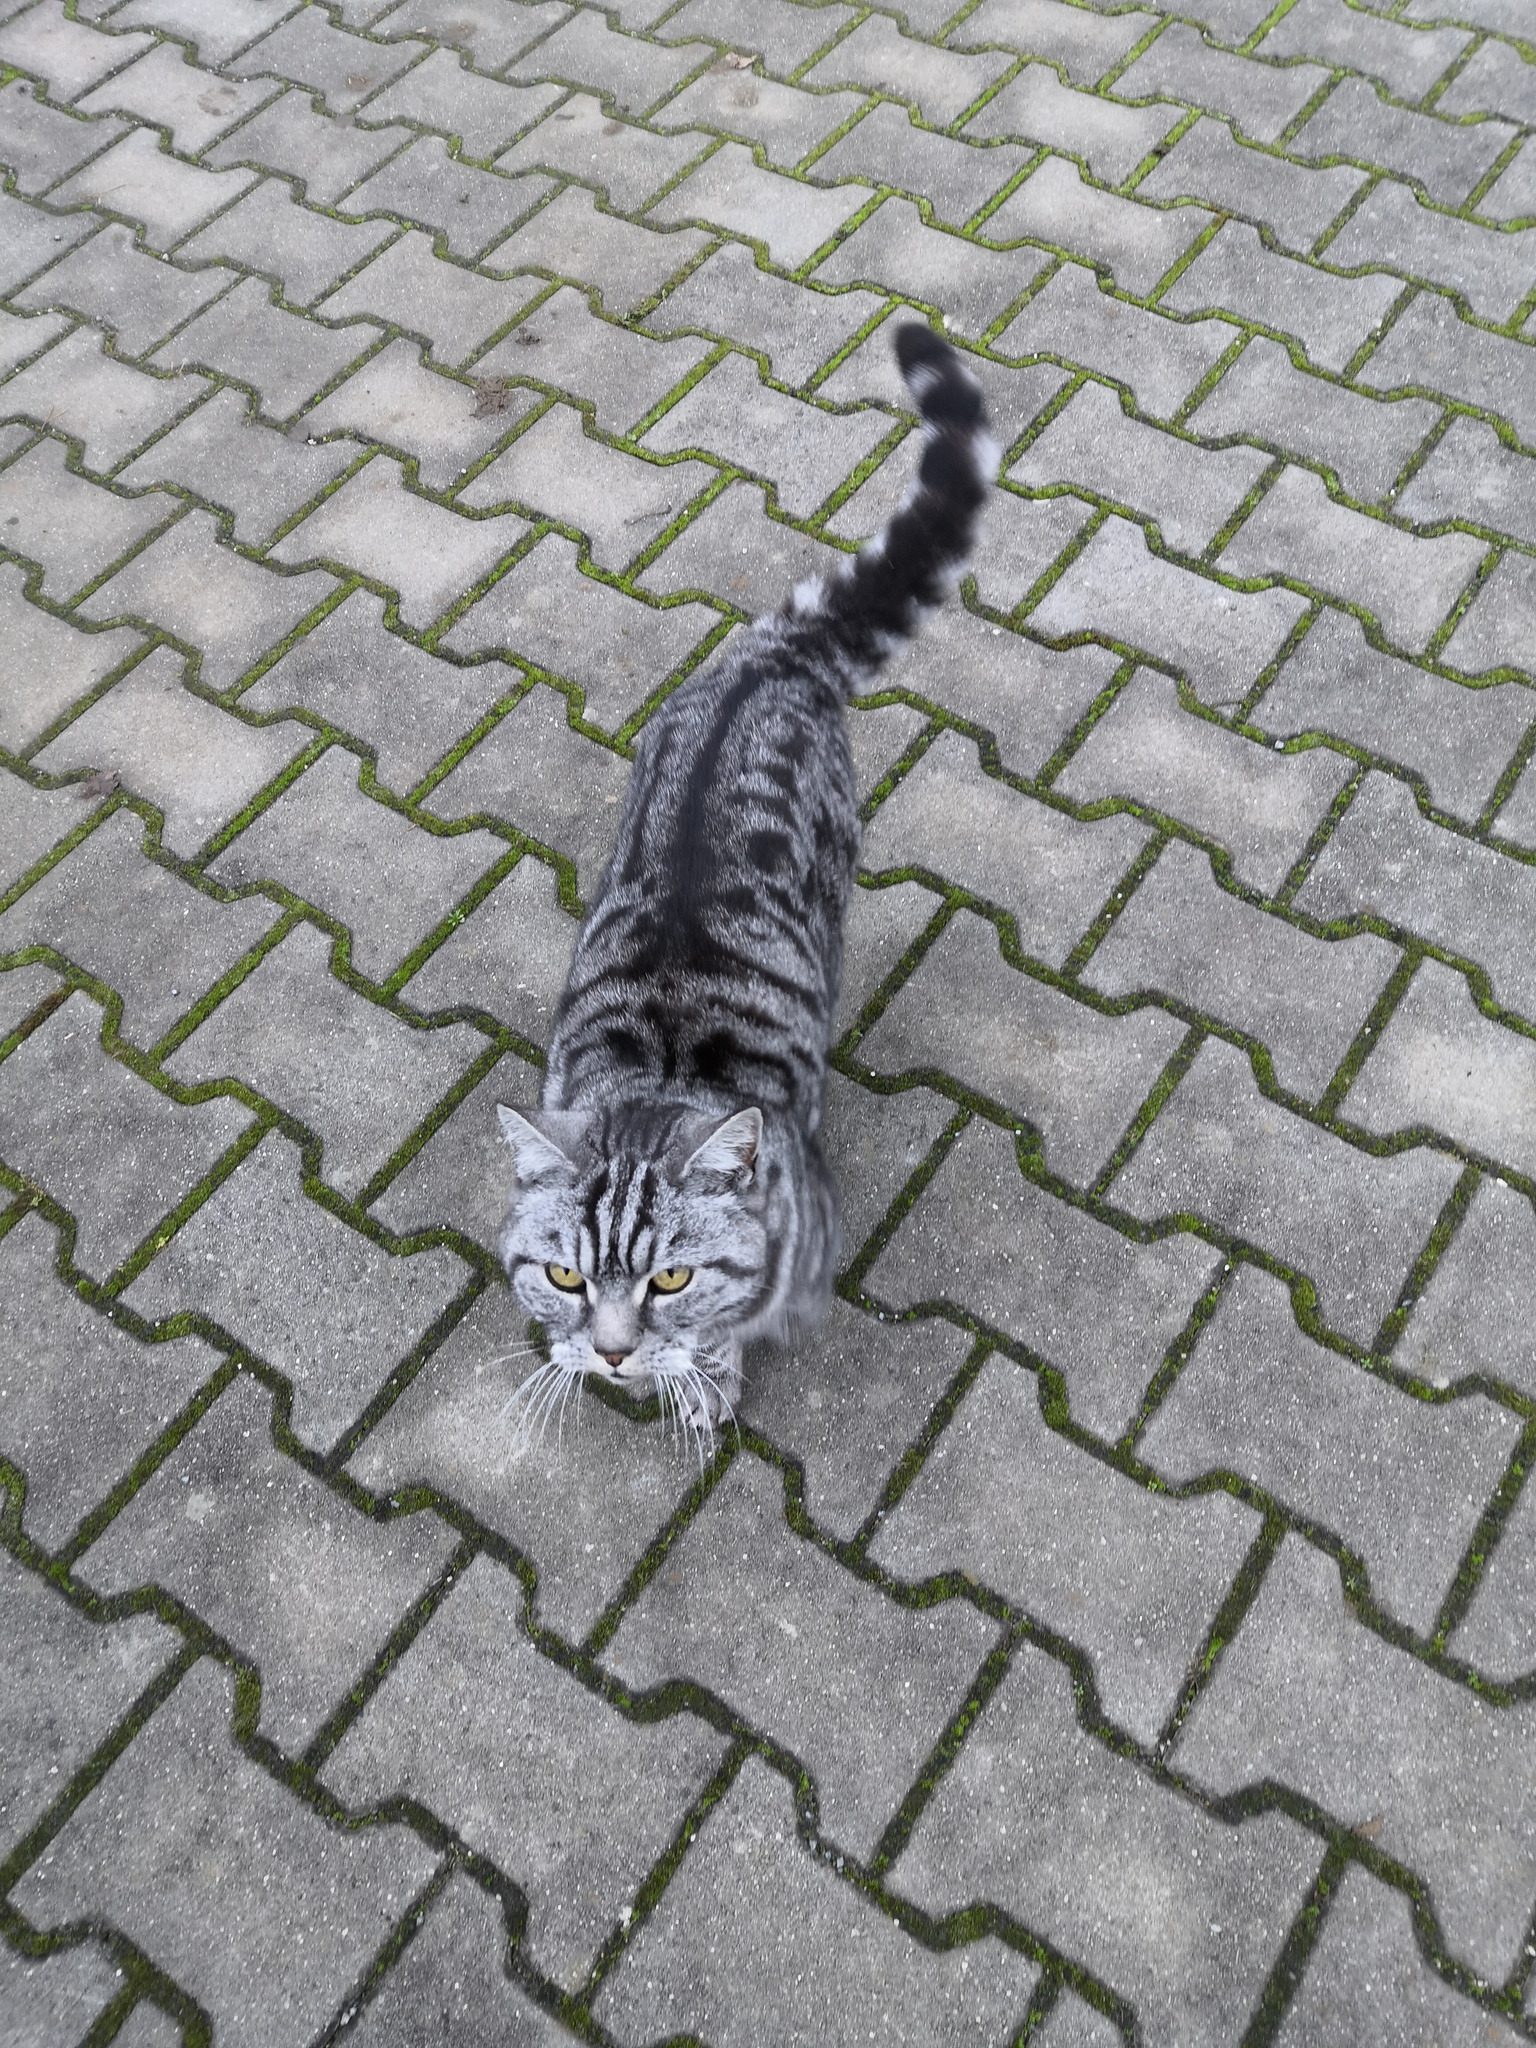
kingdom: Animalia
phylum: Chordata
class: Mammalia
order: Carnivora
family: Felidae
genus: Felis
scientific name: Felis catus
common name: Domestic cat
